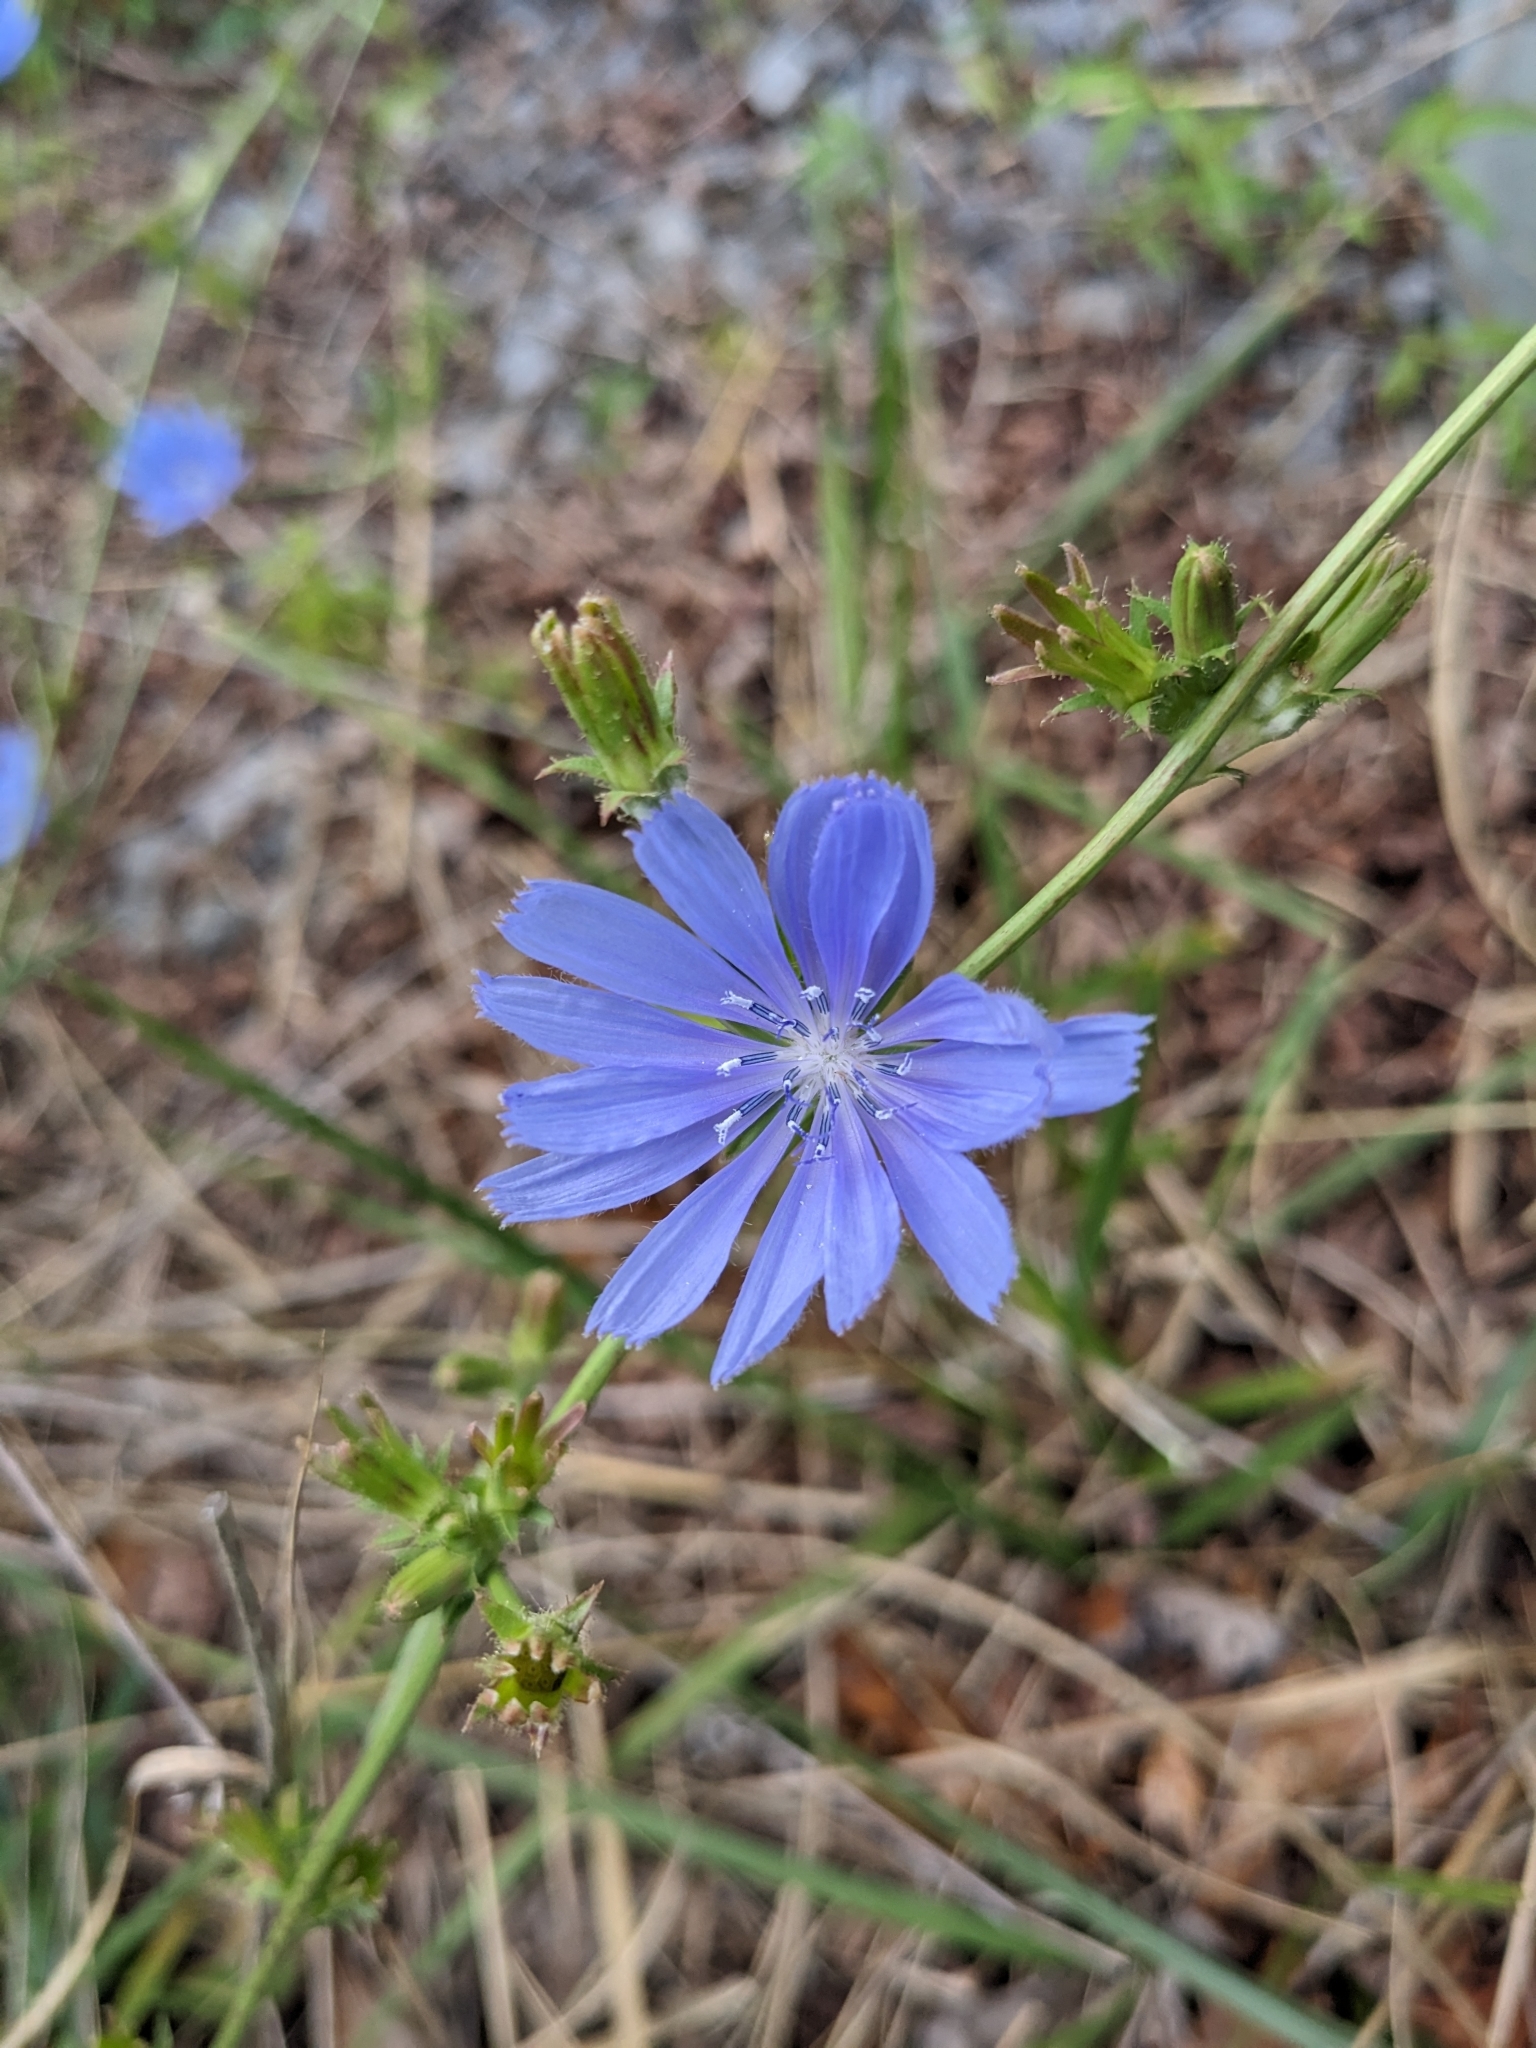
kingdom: Plantae
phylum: Tracheophyta
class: Magnoliopsida
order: Asterales
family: Asteraceae
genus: Cichorium
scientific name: Cichorium intybus
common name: Chicory
